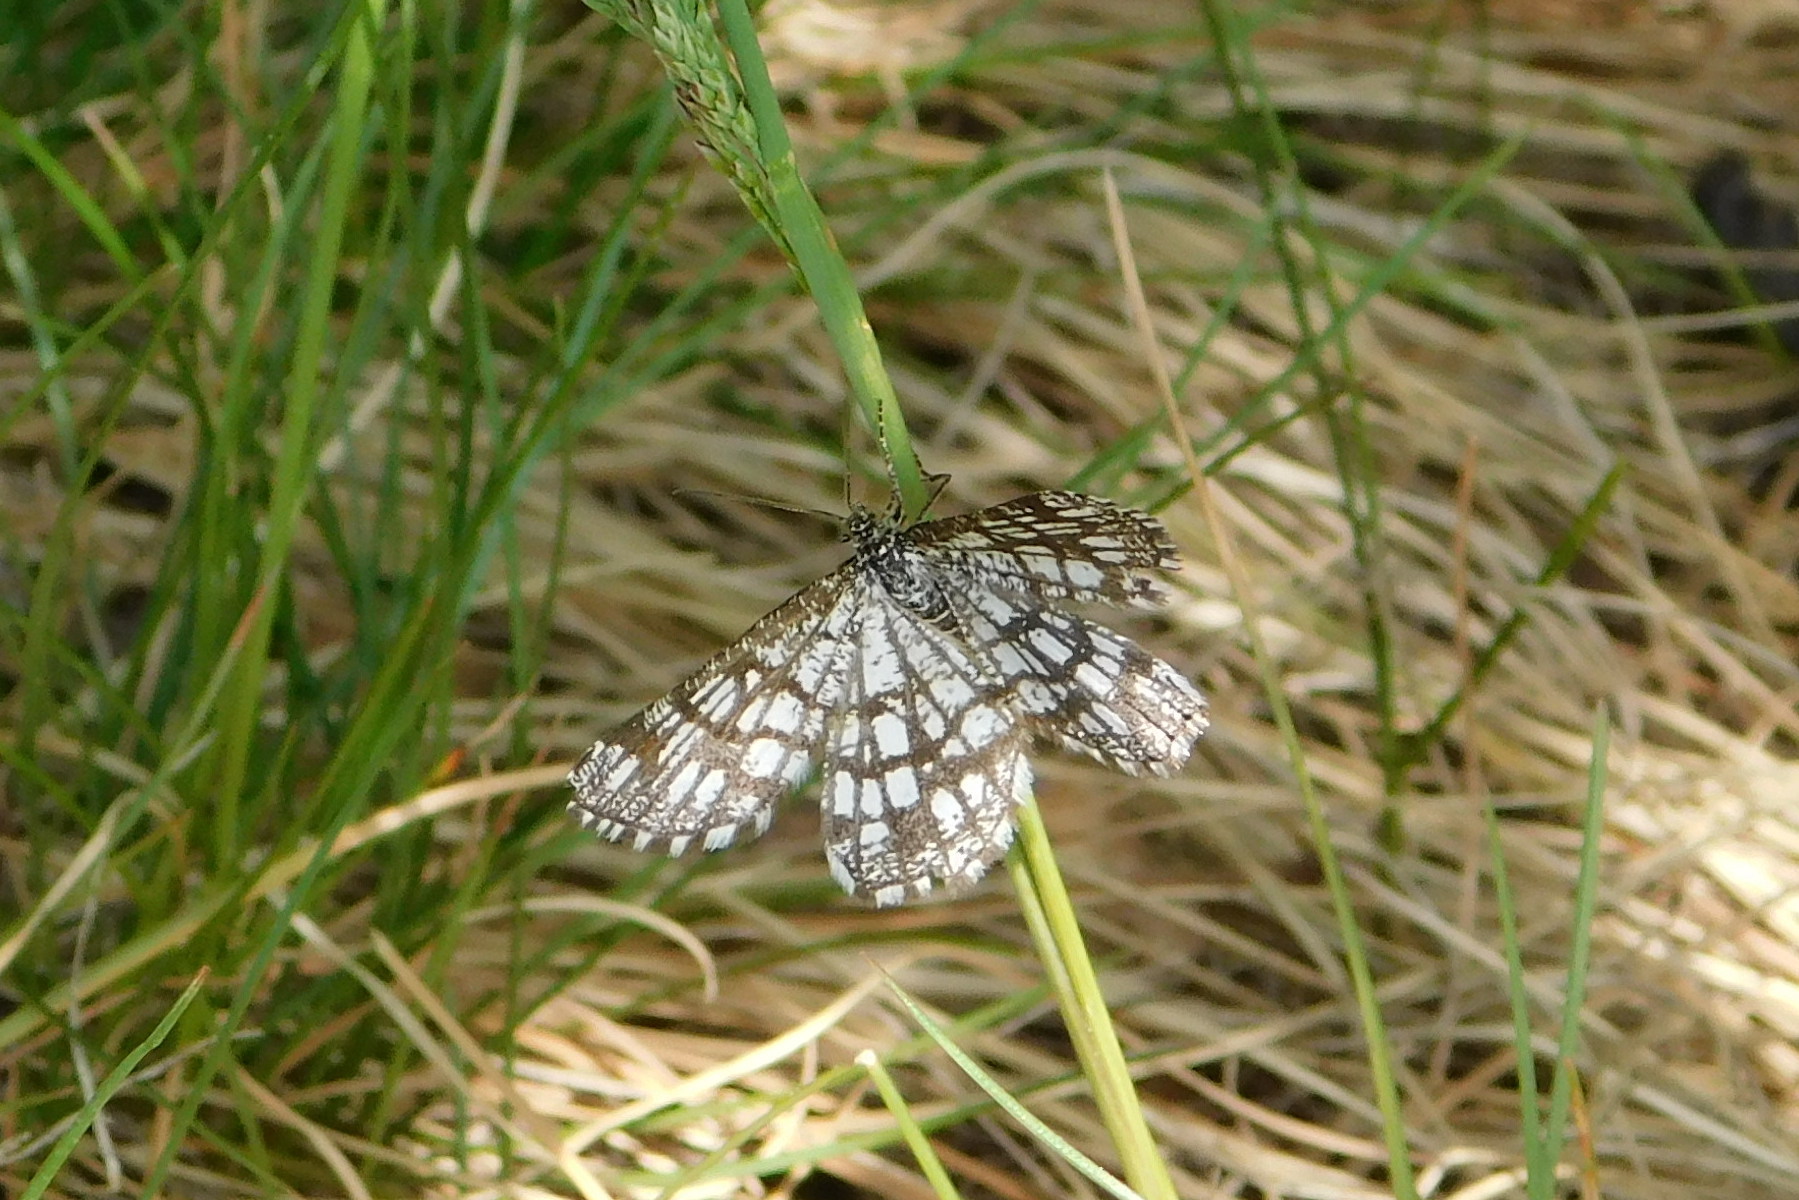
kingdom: Animalia
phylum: Arthropoda
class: Insecta
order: Lepidoptera
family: Geometridae
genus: Chiasmia
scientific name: Chiasmia clathrata
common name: Latticed heath
